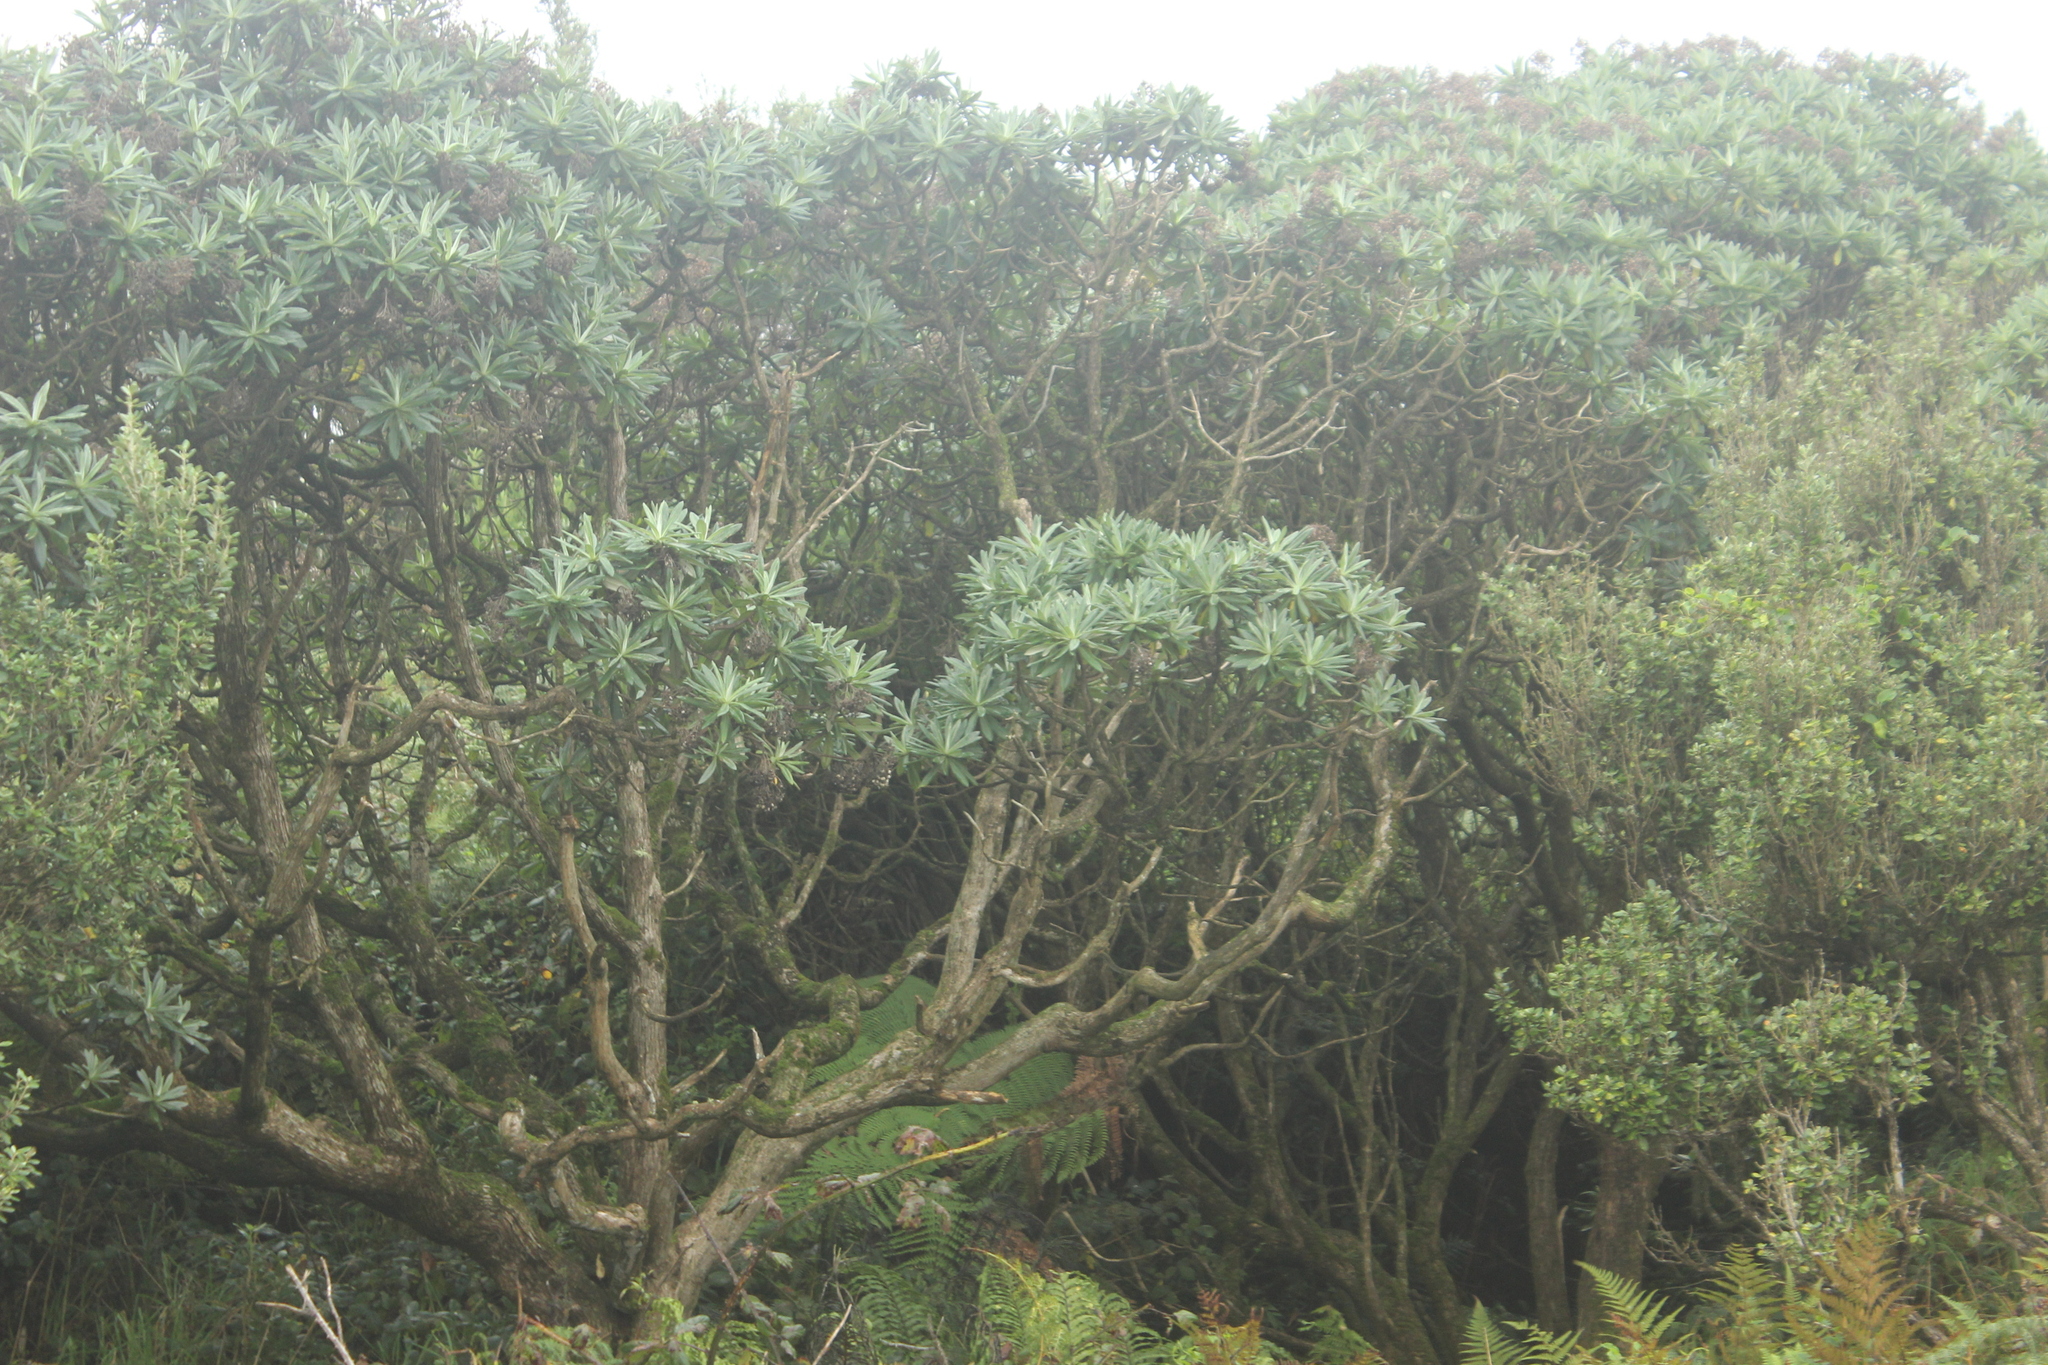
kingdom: Plantae
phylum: Tracheophyta
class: Magnoliopsida
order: Asterales
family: Asteraceae
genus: Brachyglottis
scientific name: Brachyglottis huntii
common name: Chatham island christmas tree
